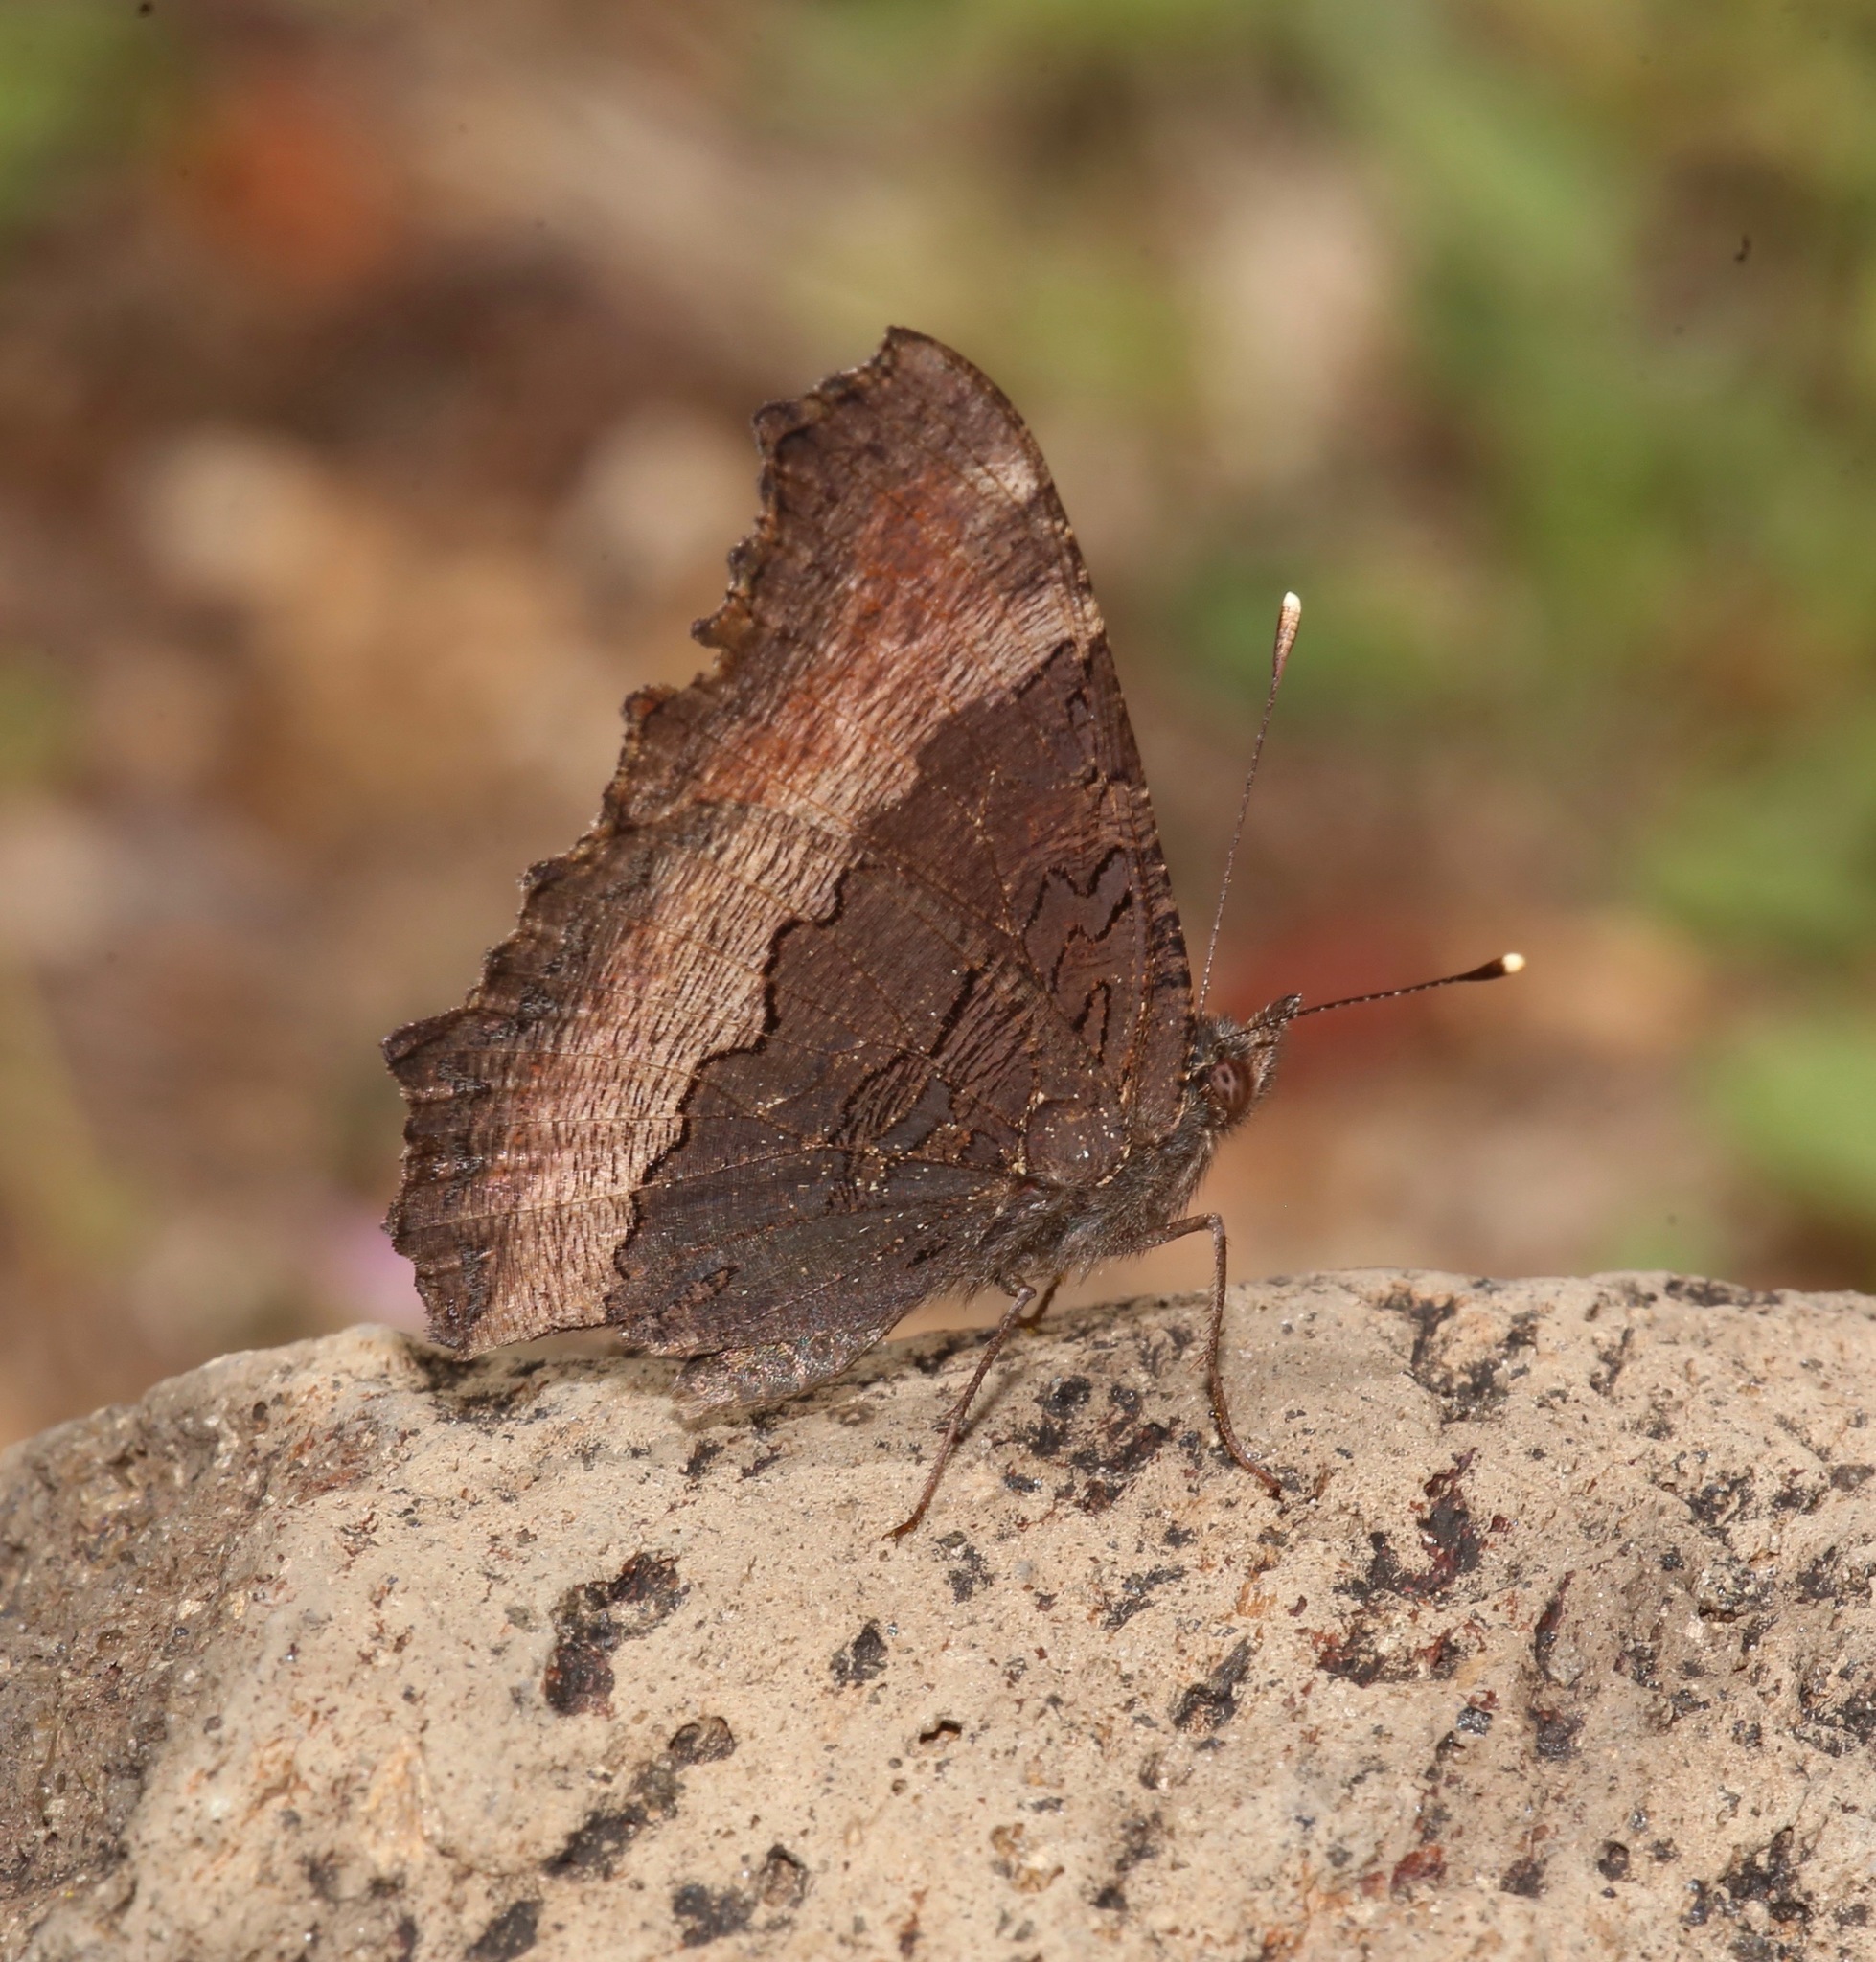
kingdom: Animalia
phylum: Arthropoda
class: Insecta
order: Lepidoptera
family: Nymphalidae
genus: Aglais
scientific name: Aglais milberti
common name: Milbert's tortoiseshell
